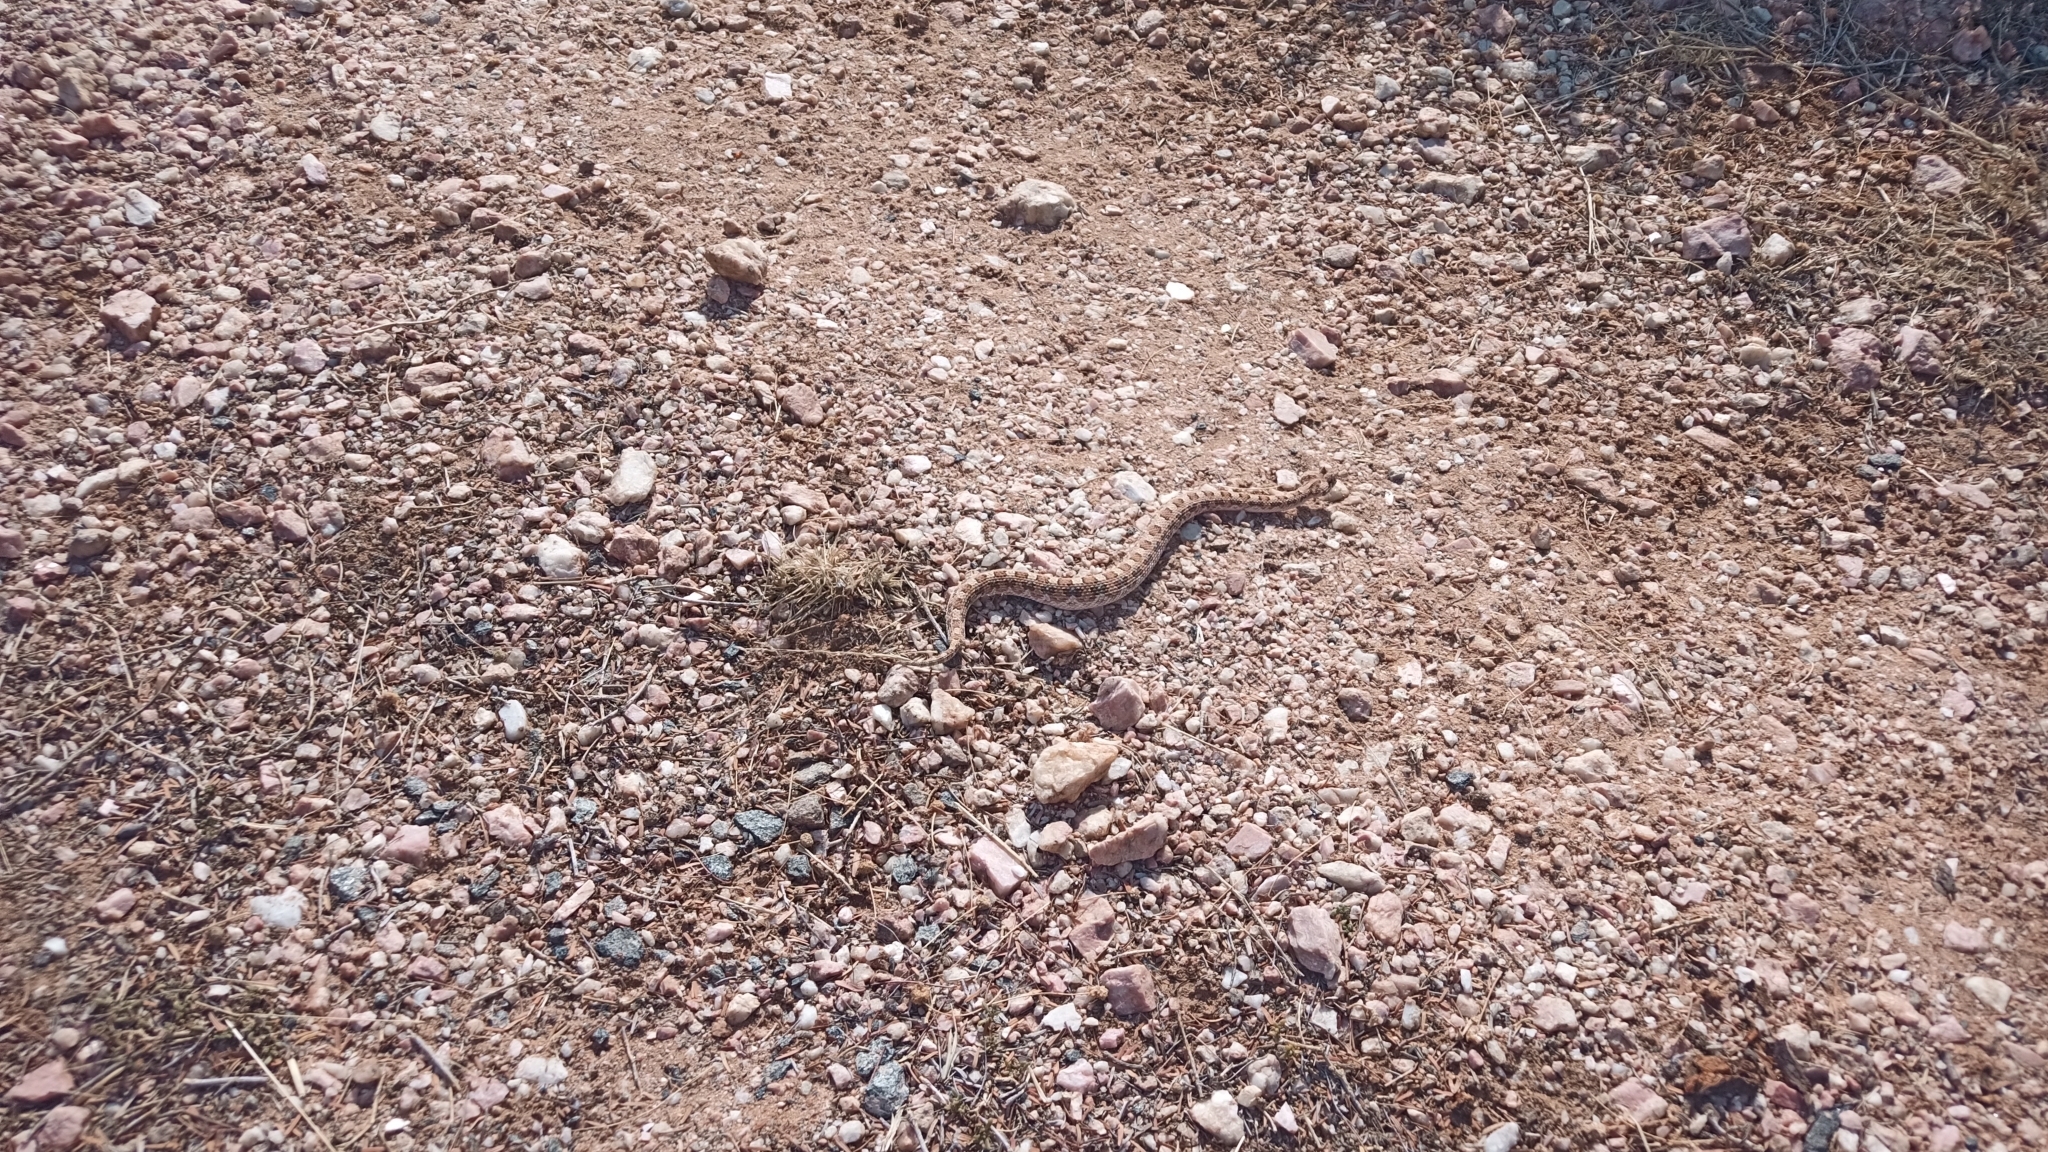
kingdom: Animalia
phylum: Chordata
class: Squamata
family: Viperidae
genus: Bitis
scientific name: Bitis caudalis
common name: Horned adder
